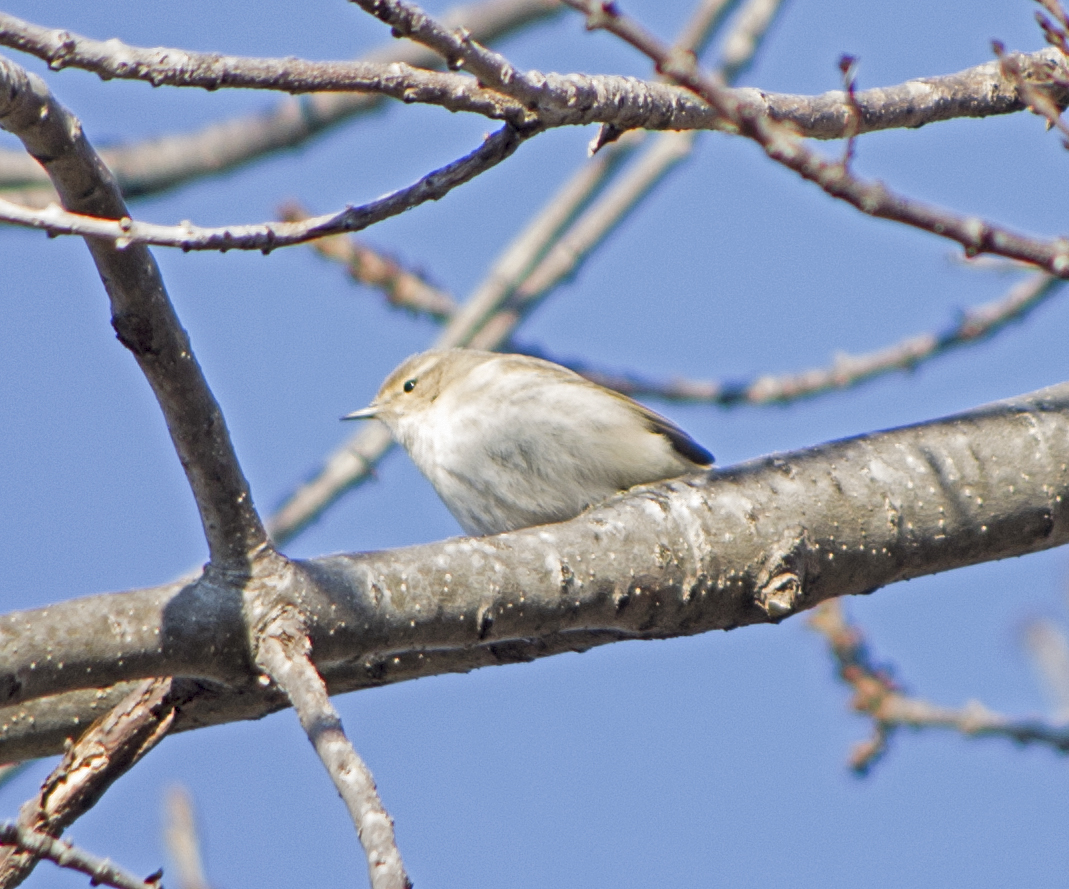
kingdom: Animalia
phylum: Chordata
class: Aves
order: Passeriformes
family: Phylloscopidae
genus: Phylloscopus
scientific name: Phylloscopus collybita
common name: Common chiffchaff
